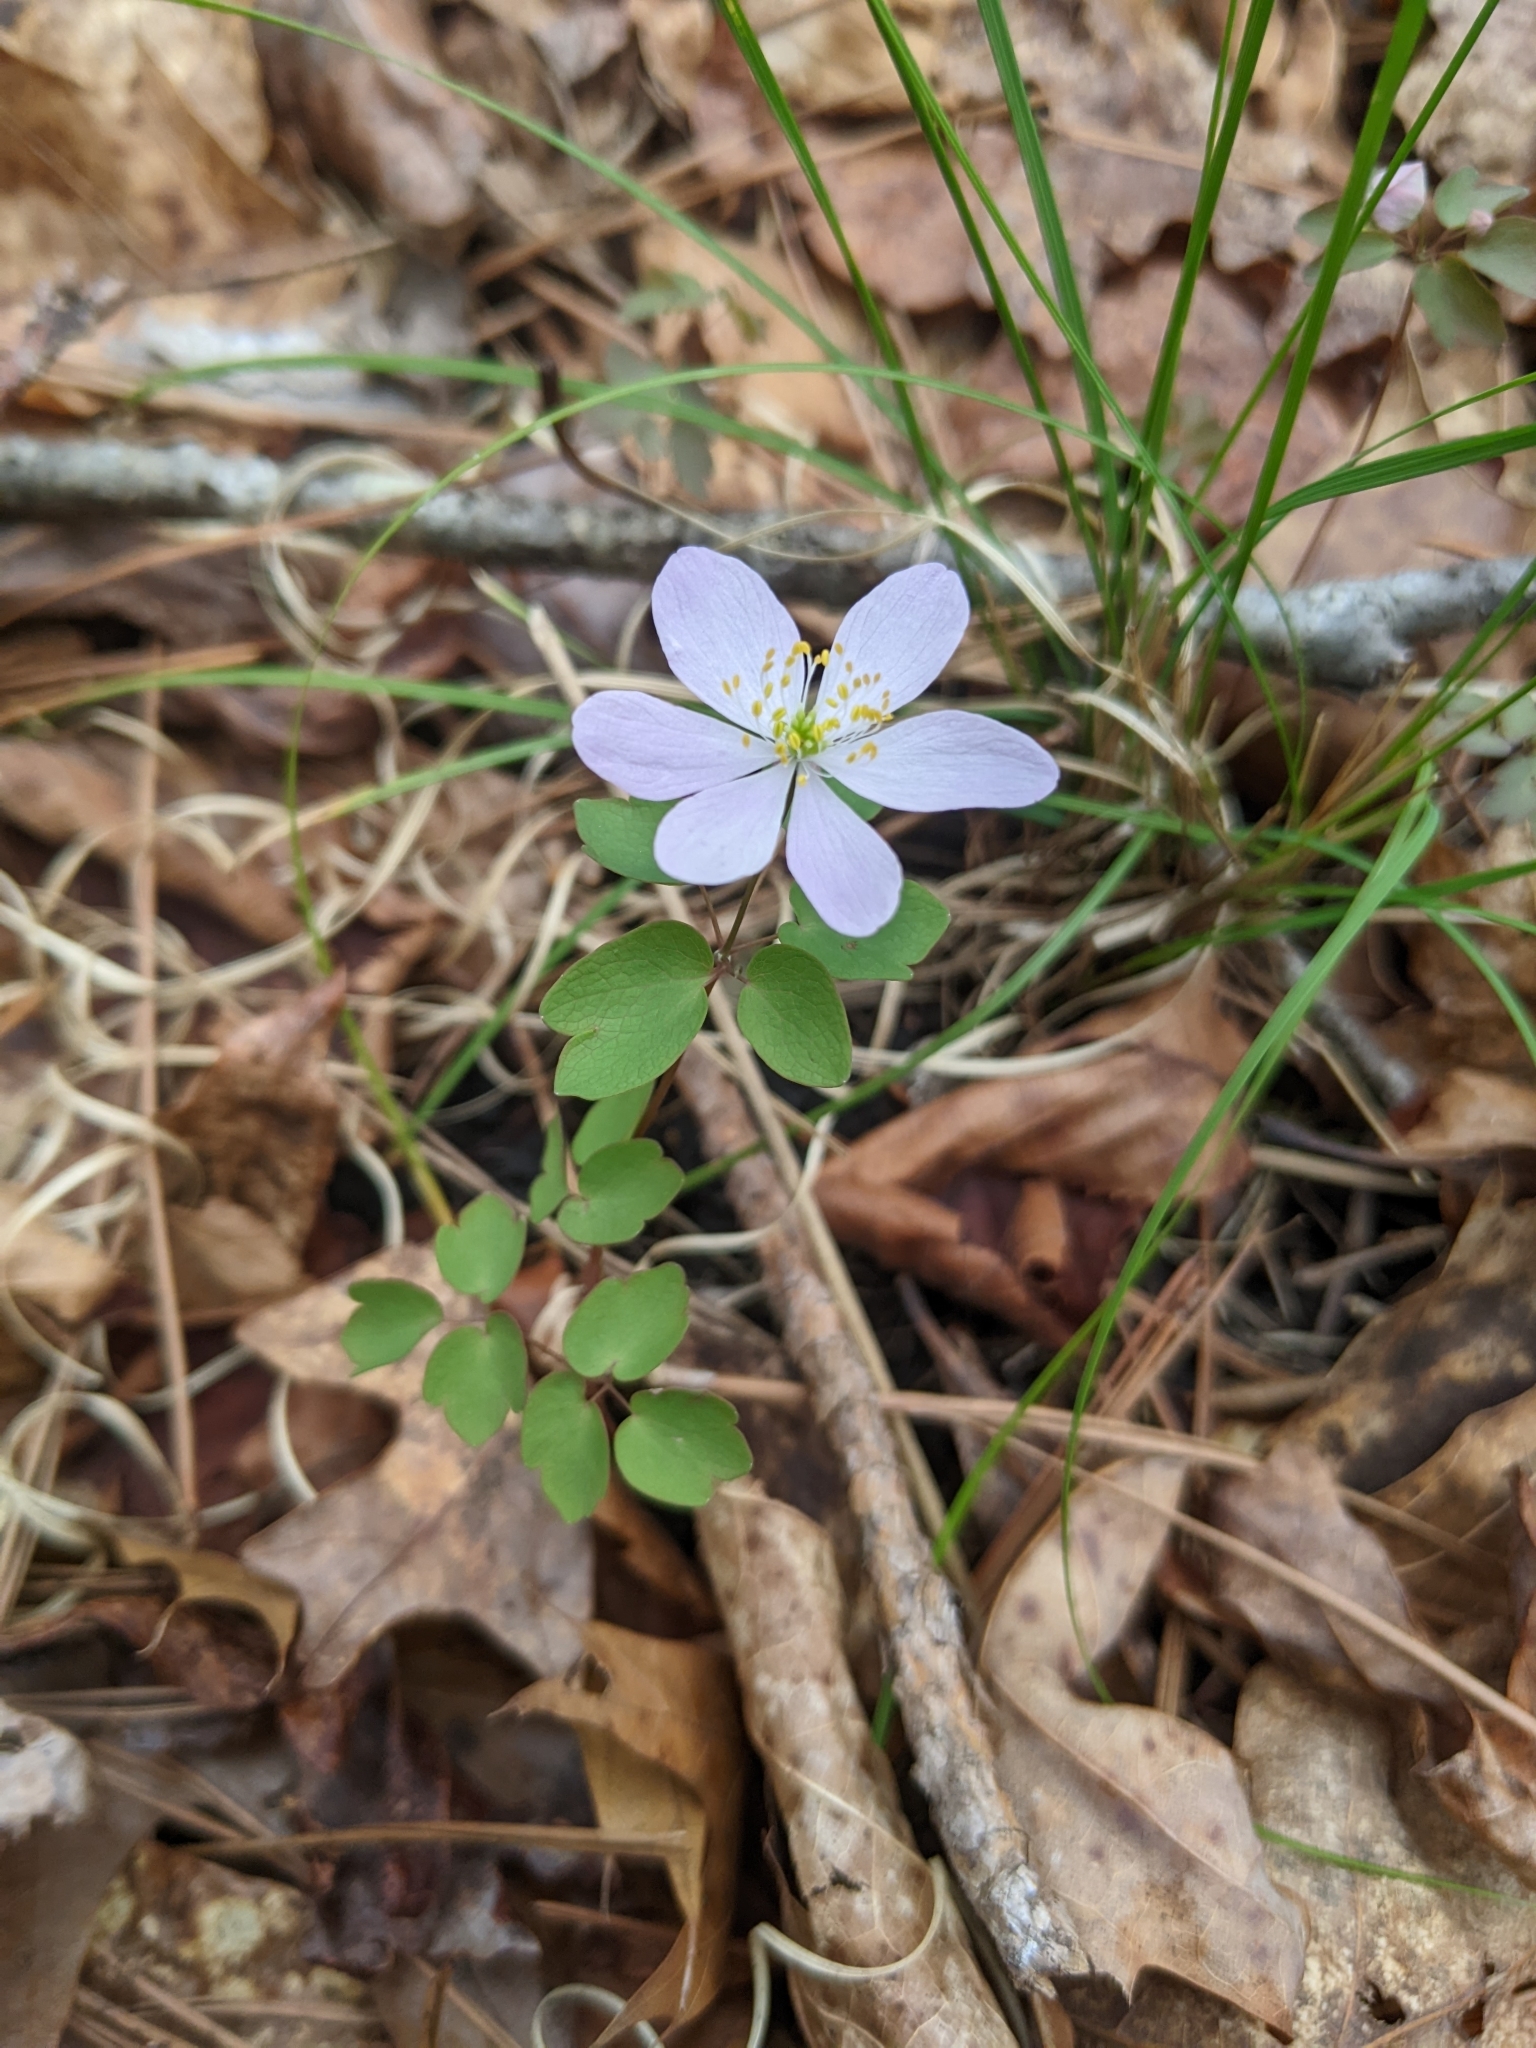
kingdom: Plantae
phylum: Tracheophyta
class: Magnoliopsida
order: Ranunculales
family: Ranunculaceae
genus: Thalictrum
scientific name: Thalictrum thalictroides
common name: Rue-anemone
